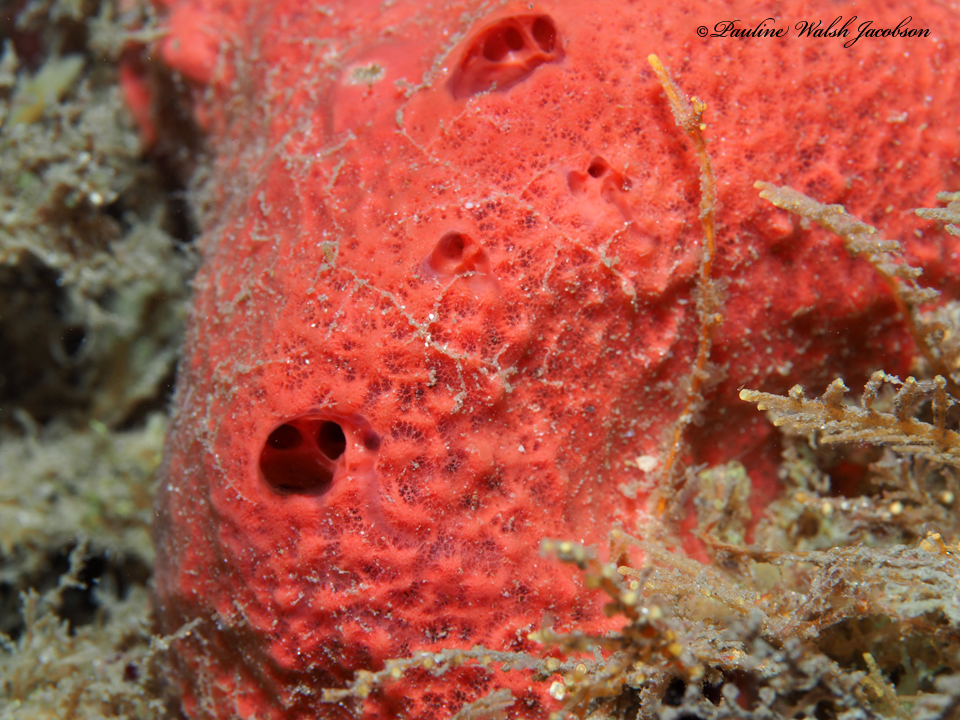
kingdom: Animalia
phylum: Porifera
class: Demospongiae
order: Haplosclerida
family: Niphatidae
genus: Amphimedon
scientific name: Amphimedon compressa
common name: Red sponge
